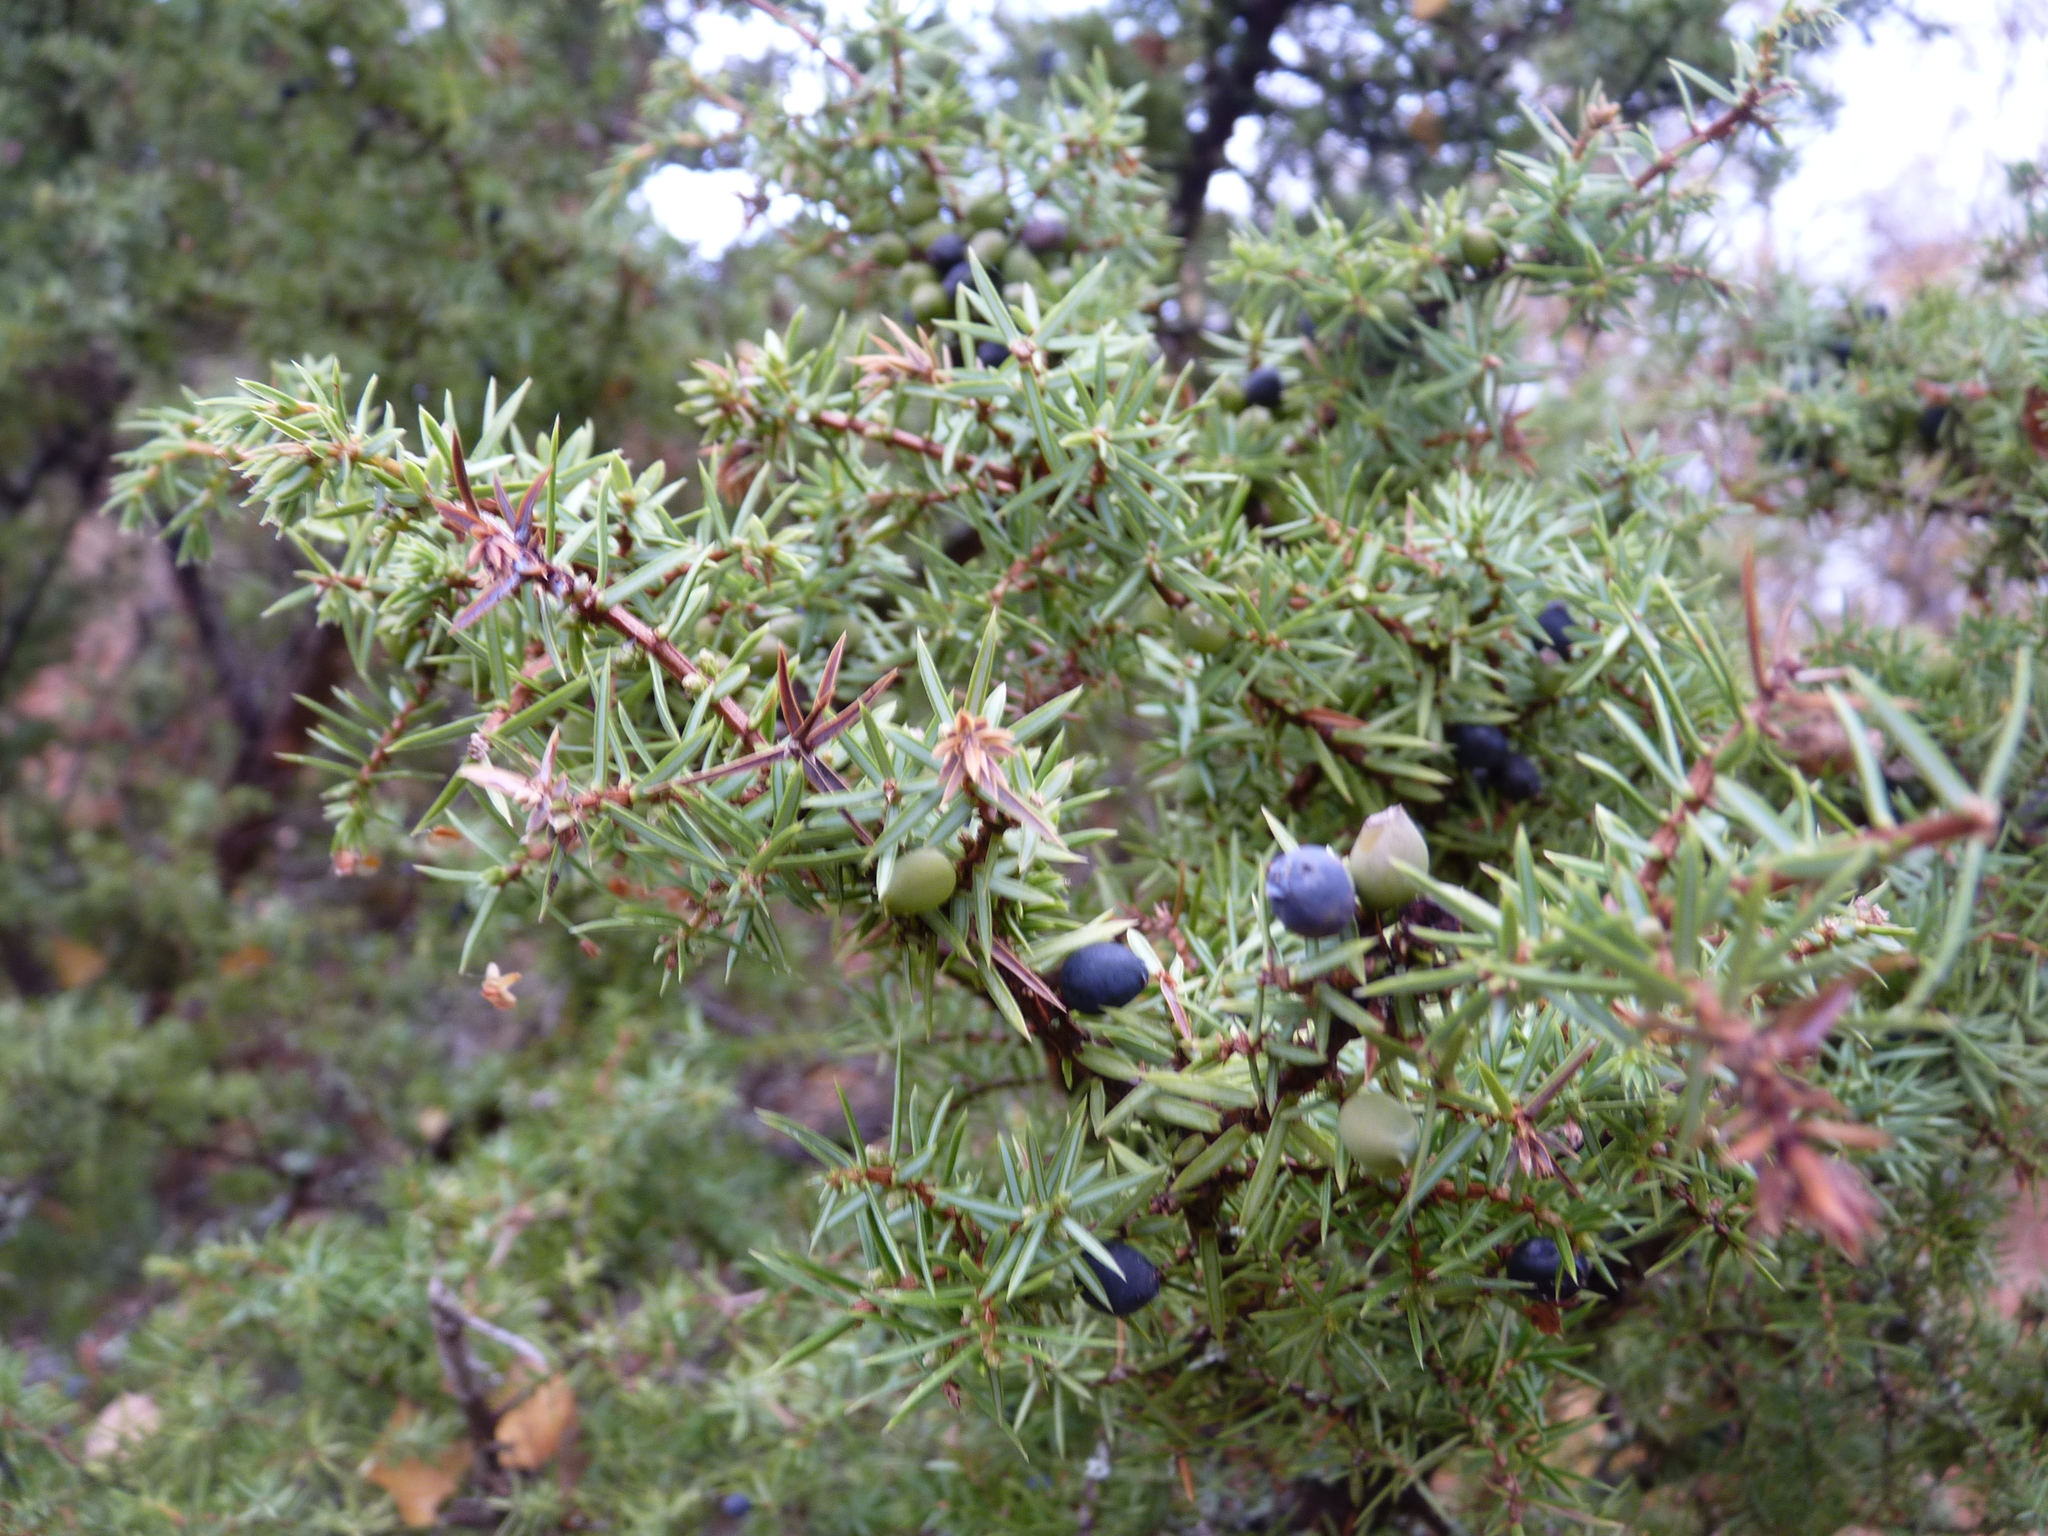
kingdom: Plantae
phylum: Tracheophyta
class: Pinopsida
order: Pinales
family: Cupressaceae
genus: Juniperus
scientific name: Juniperus communis
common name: Common juniper
